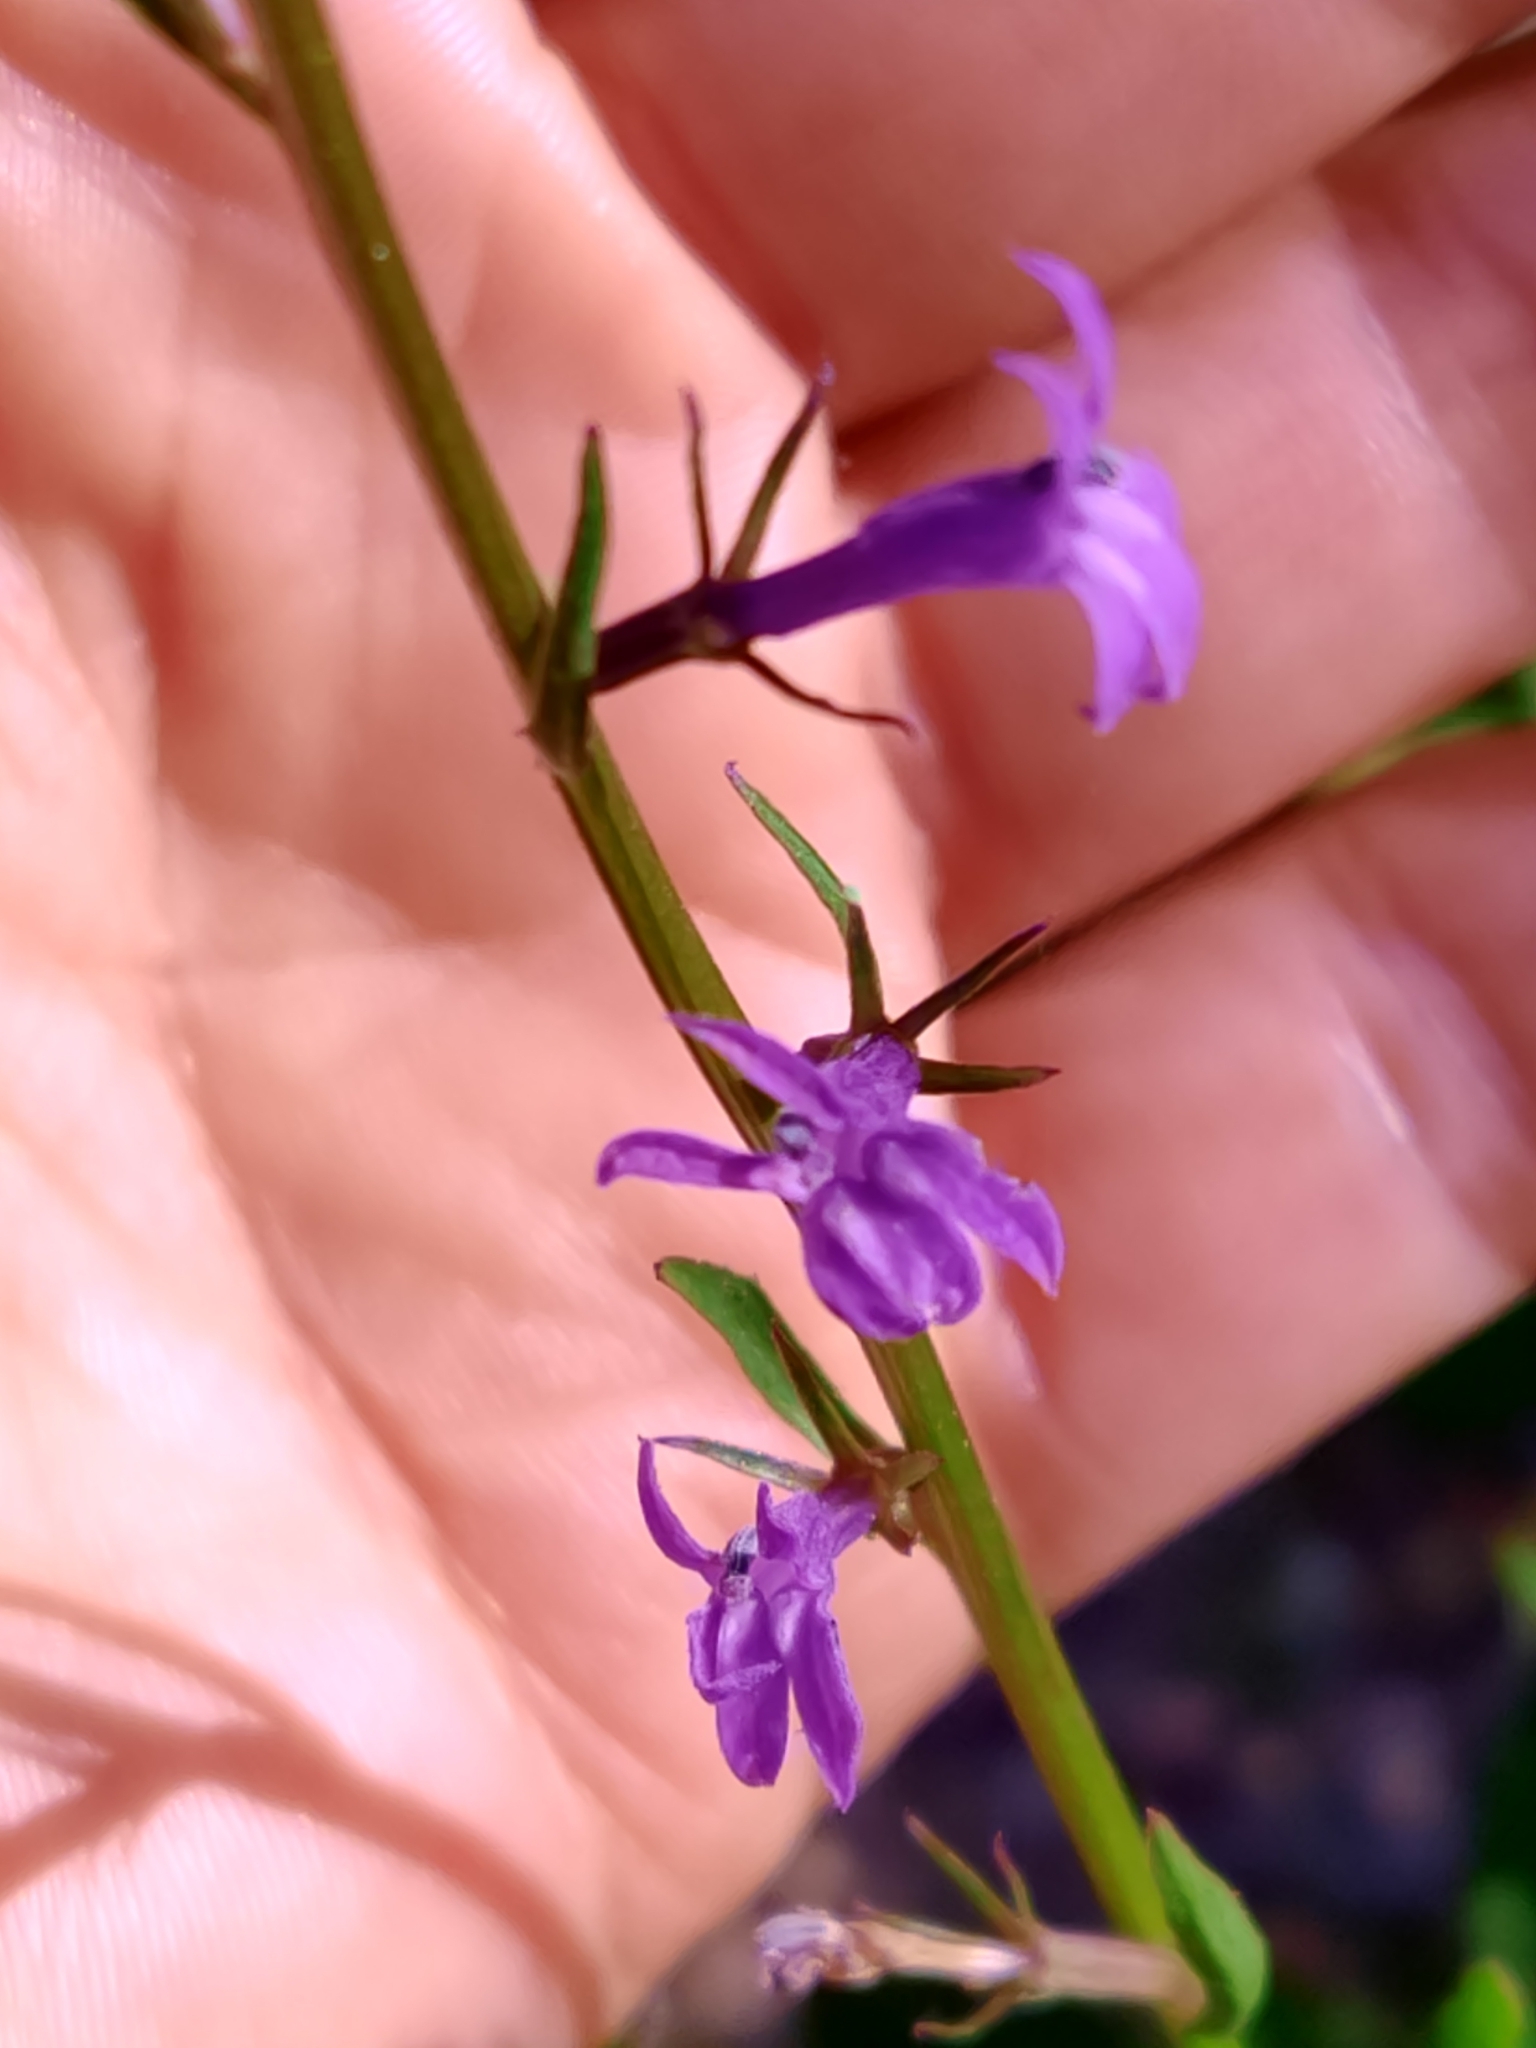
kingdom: Plantae
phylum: Tracheophyta
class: Magnoliopsida
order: Asterales
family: Campanulaceae
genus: Lobelia
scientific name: Lobelia urens
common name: Heath lobelia
